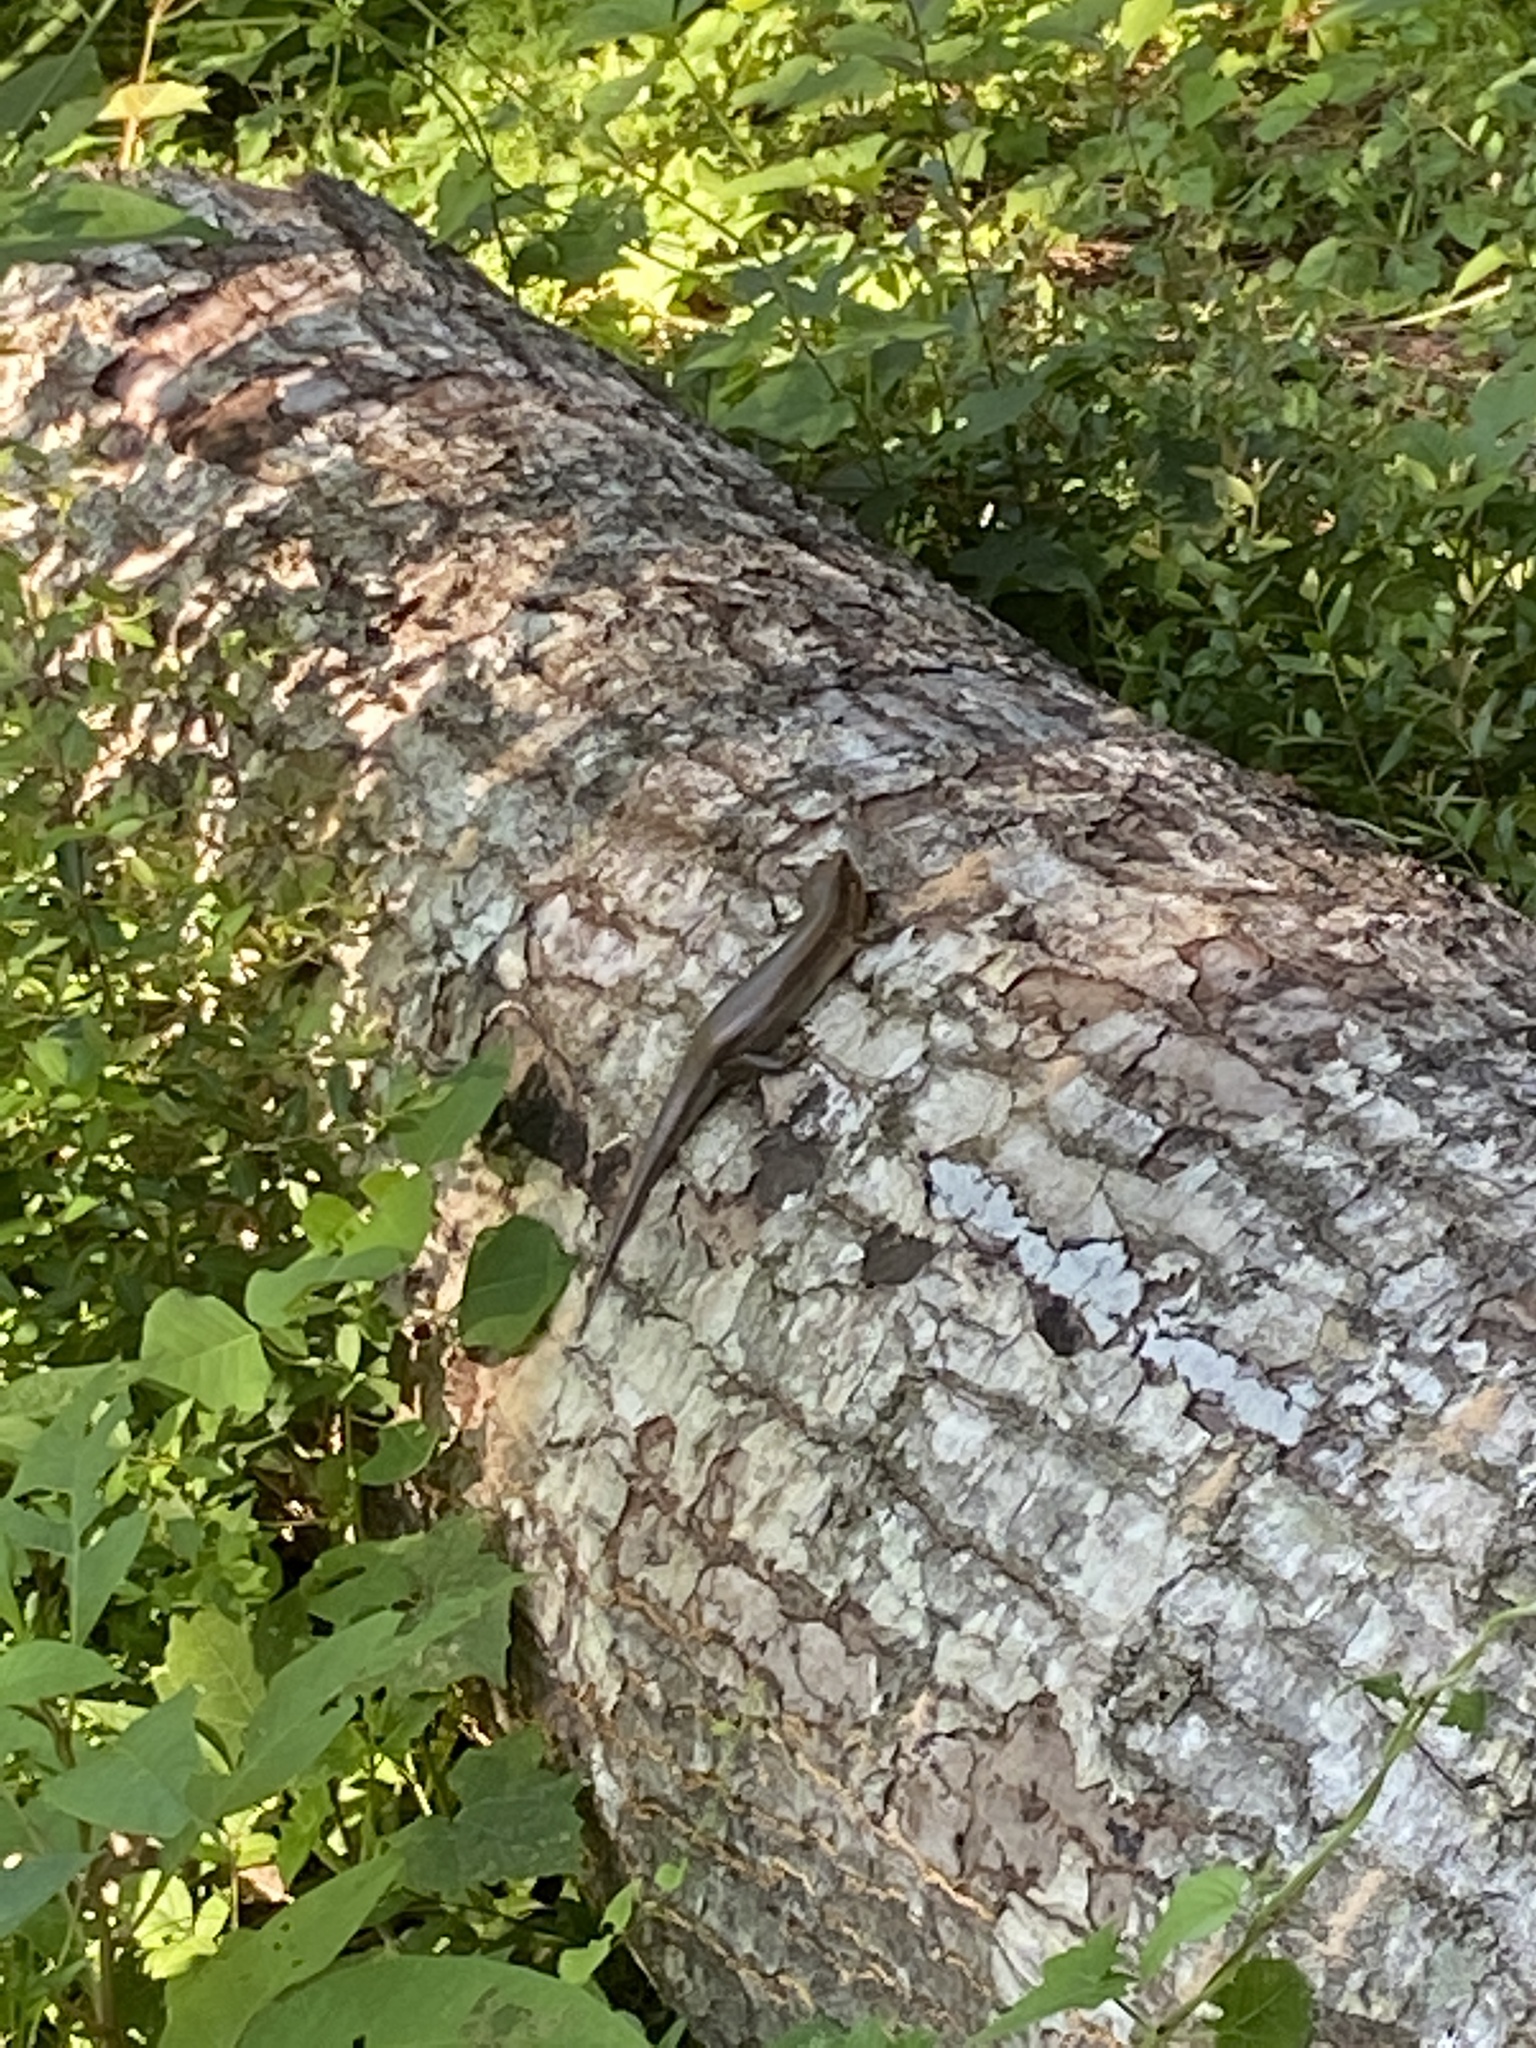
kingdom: Animalia
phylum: Chordata
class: Squamata
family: Scincidae
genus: Plestiodon
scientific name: Plestiodon laticeps
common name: Broadhead skink
